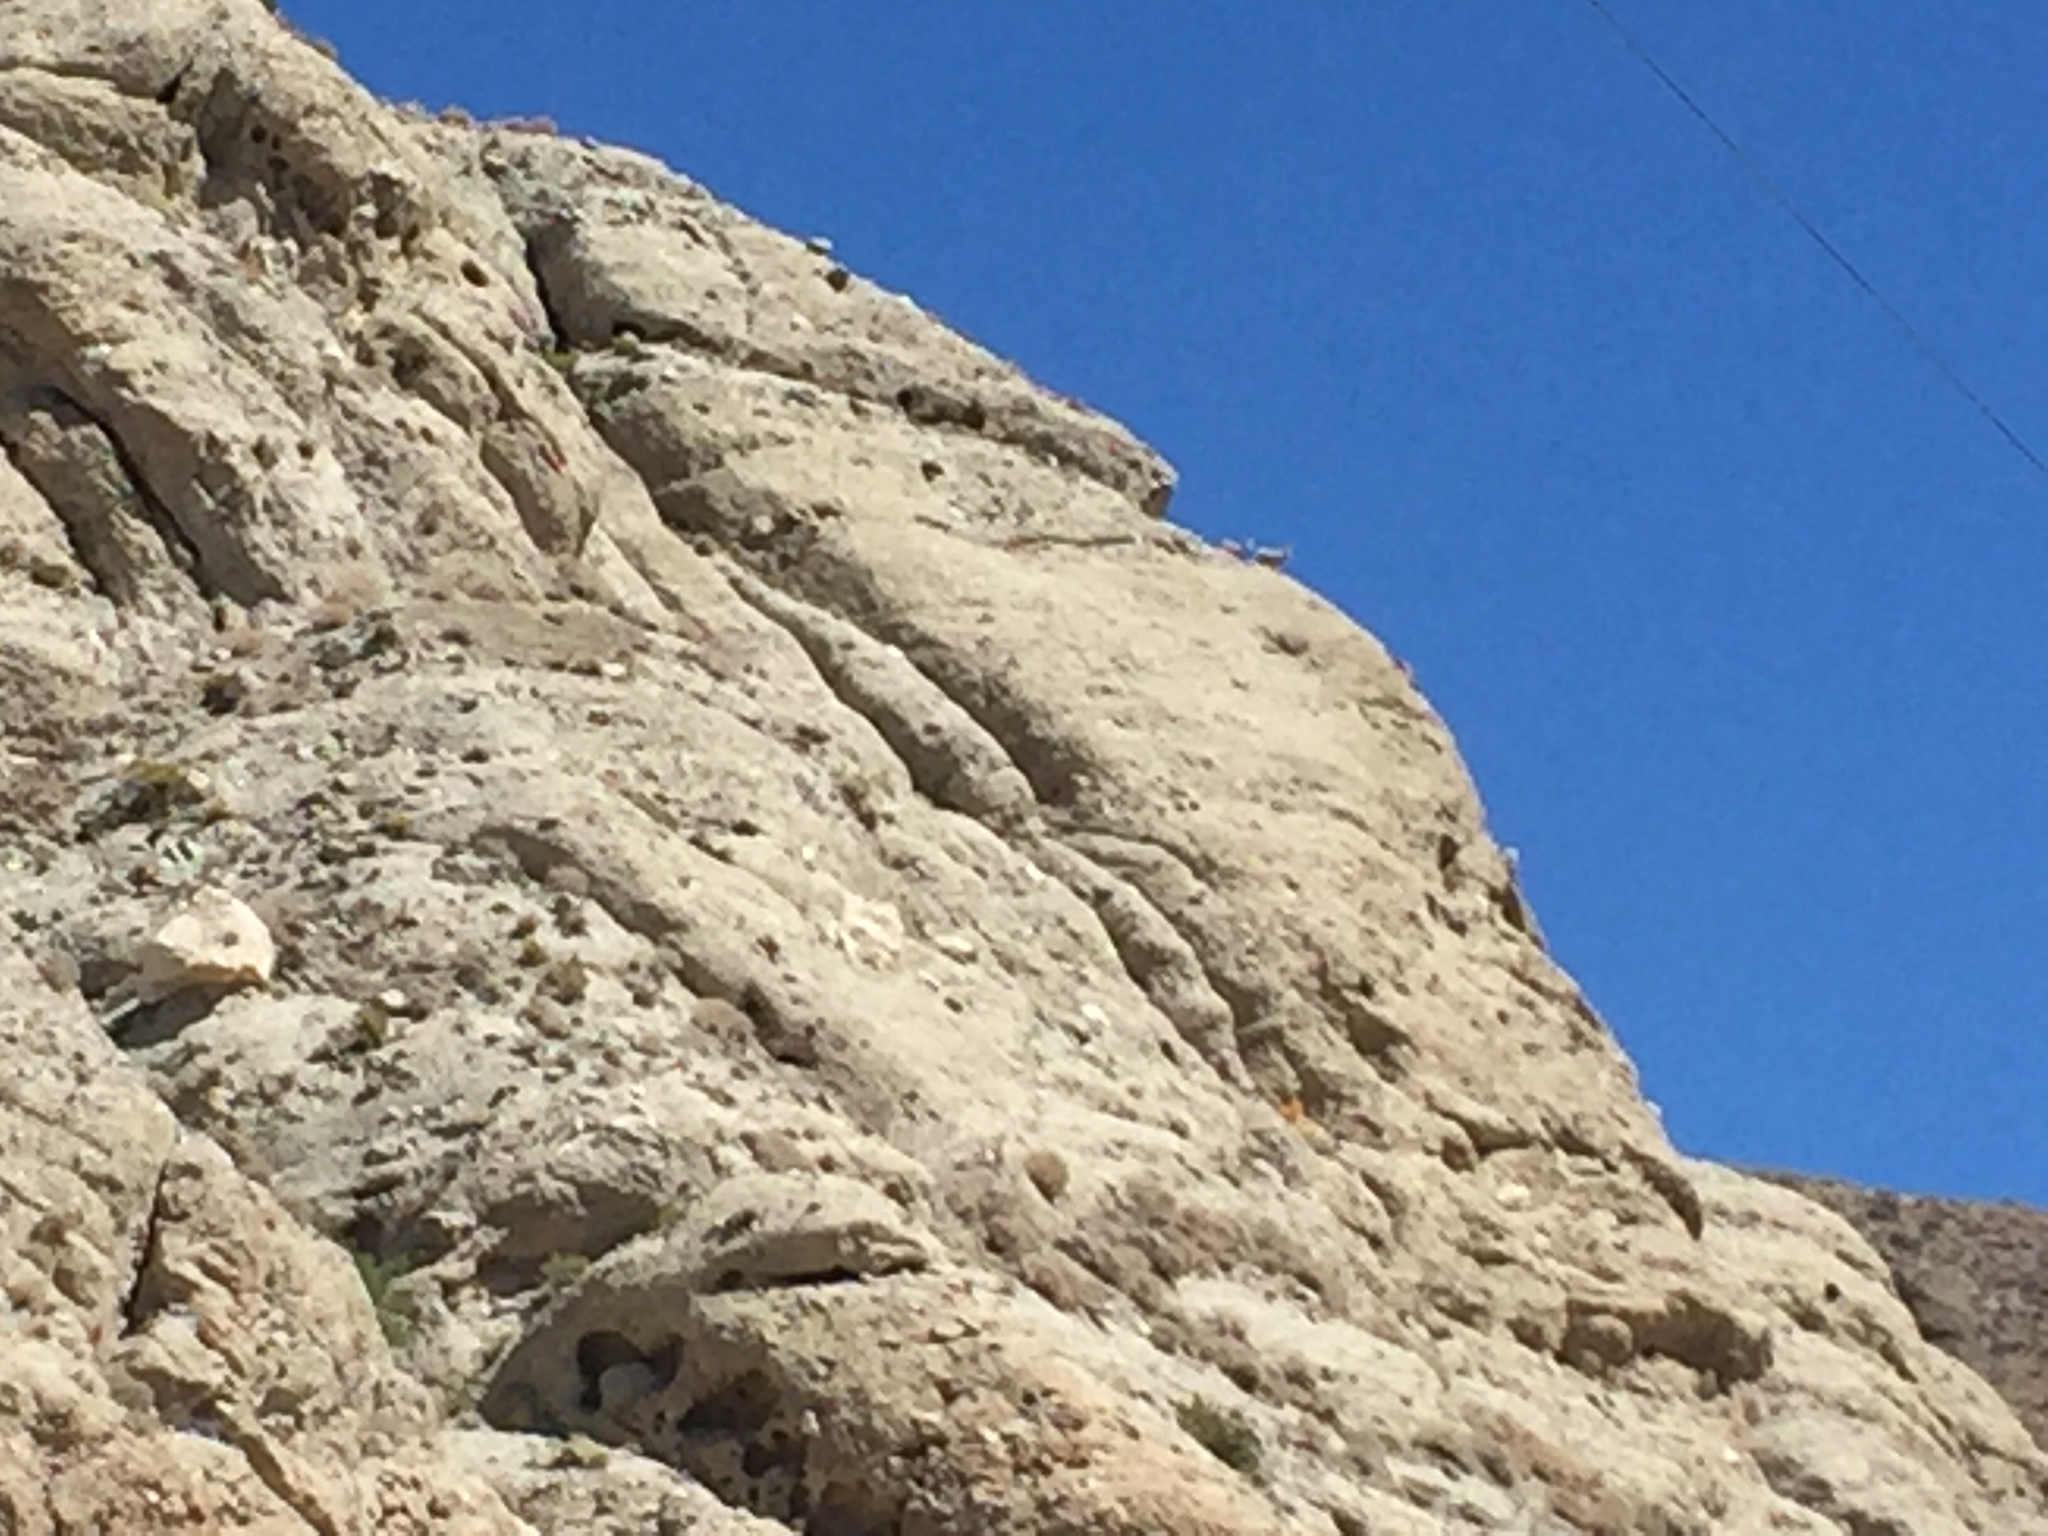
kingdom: Animalia
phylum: Chordata
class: Mammalia
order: Artiodactyla
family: Bovidae
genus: Ovis
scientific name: Ovis canadensis
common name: Bighorn sheep
